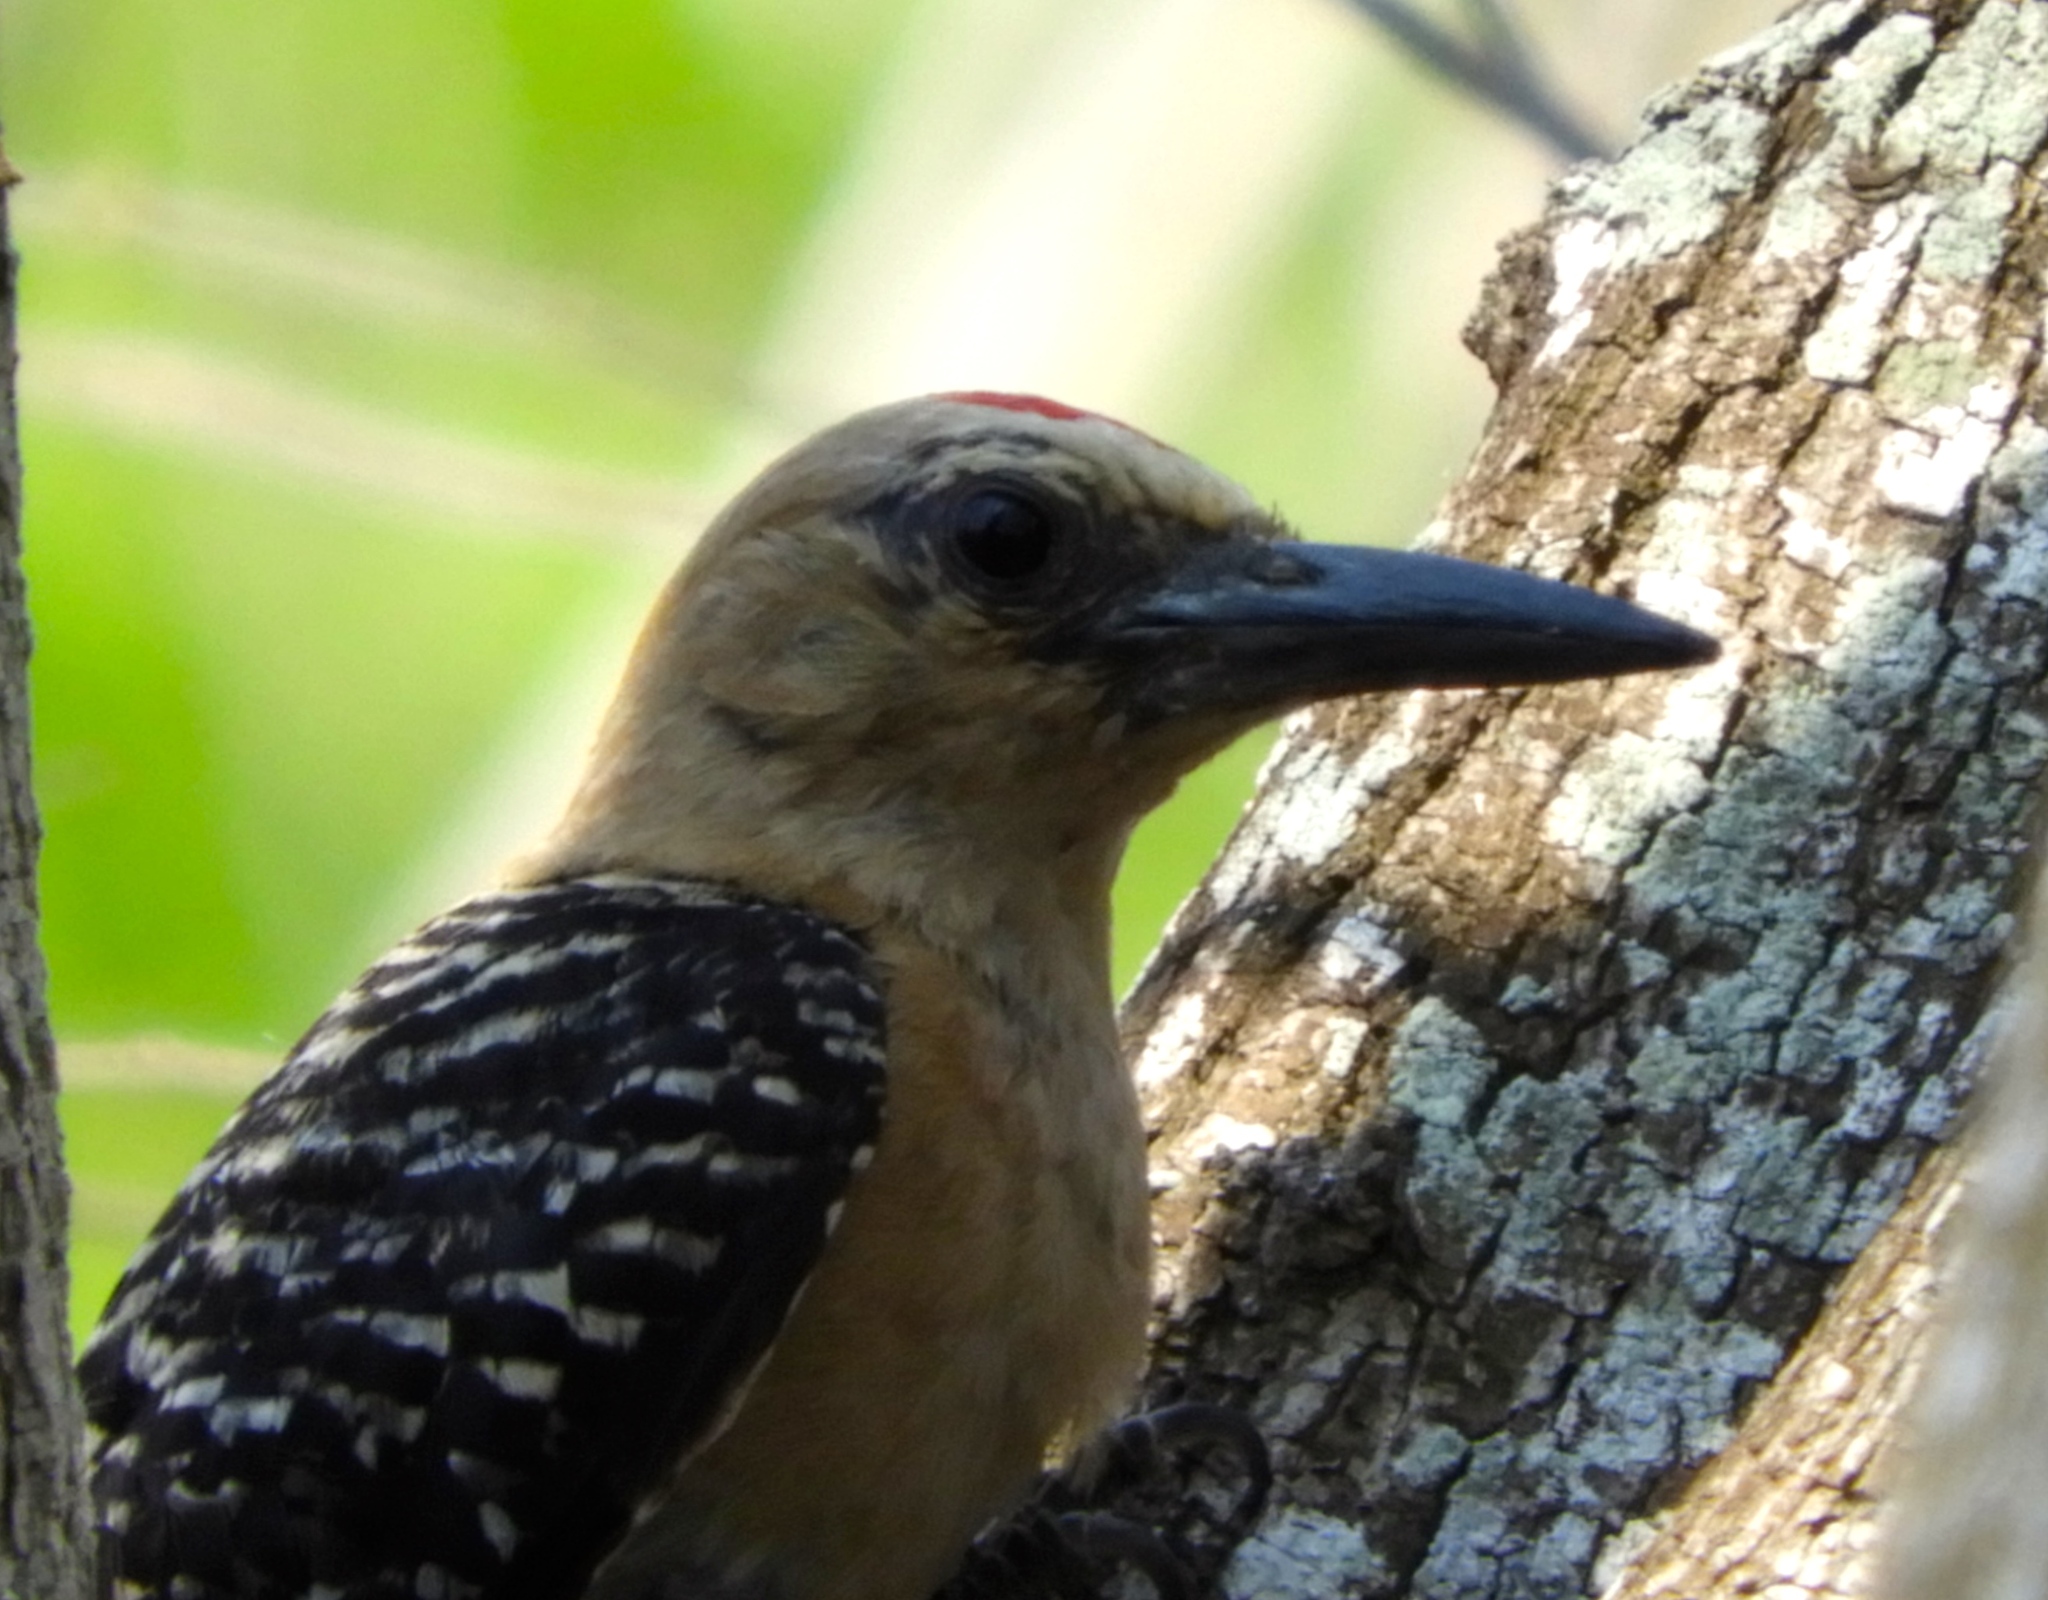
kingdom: Animalia
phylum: Chordata
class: Aves
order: Piciformes
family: Picidae
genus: Melanerpes
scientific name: Melanerpes uropygialis
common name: Gila woodpecker
